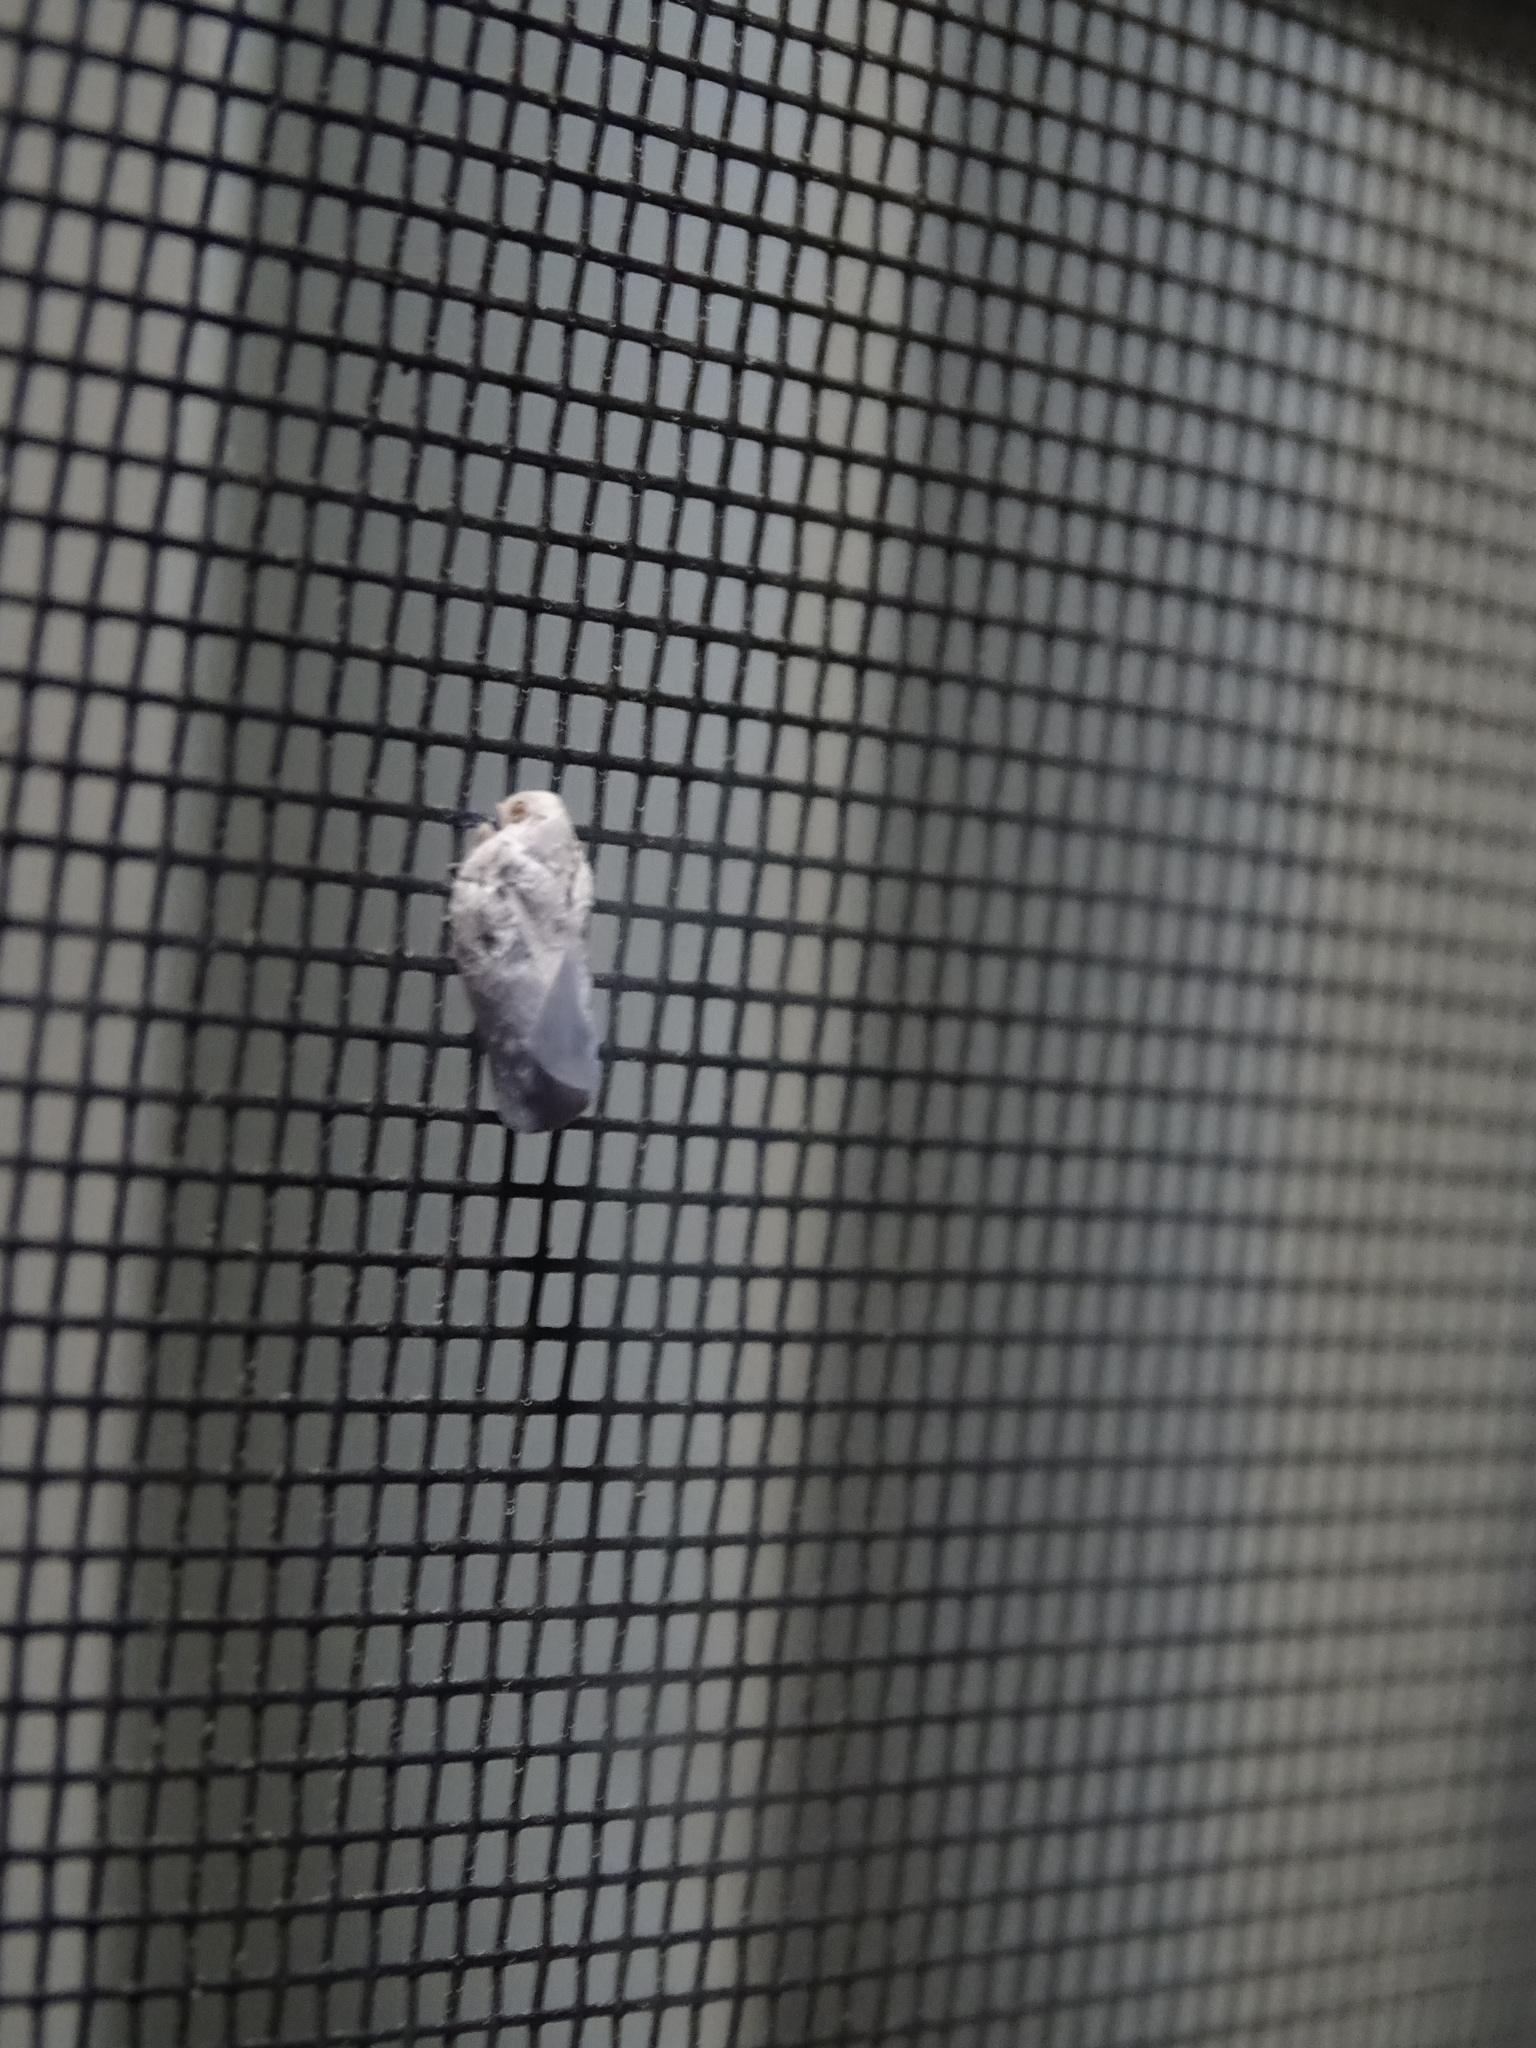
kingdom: Animalia
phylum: Arthropoda
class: Insecta
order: Hemiptera
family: Flatidae
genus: Metcalfa
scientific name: Metcalfa pruinosa
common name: Citrus flatid planthopper
